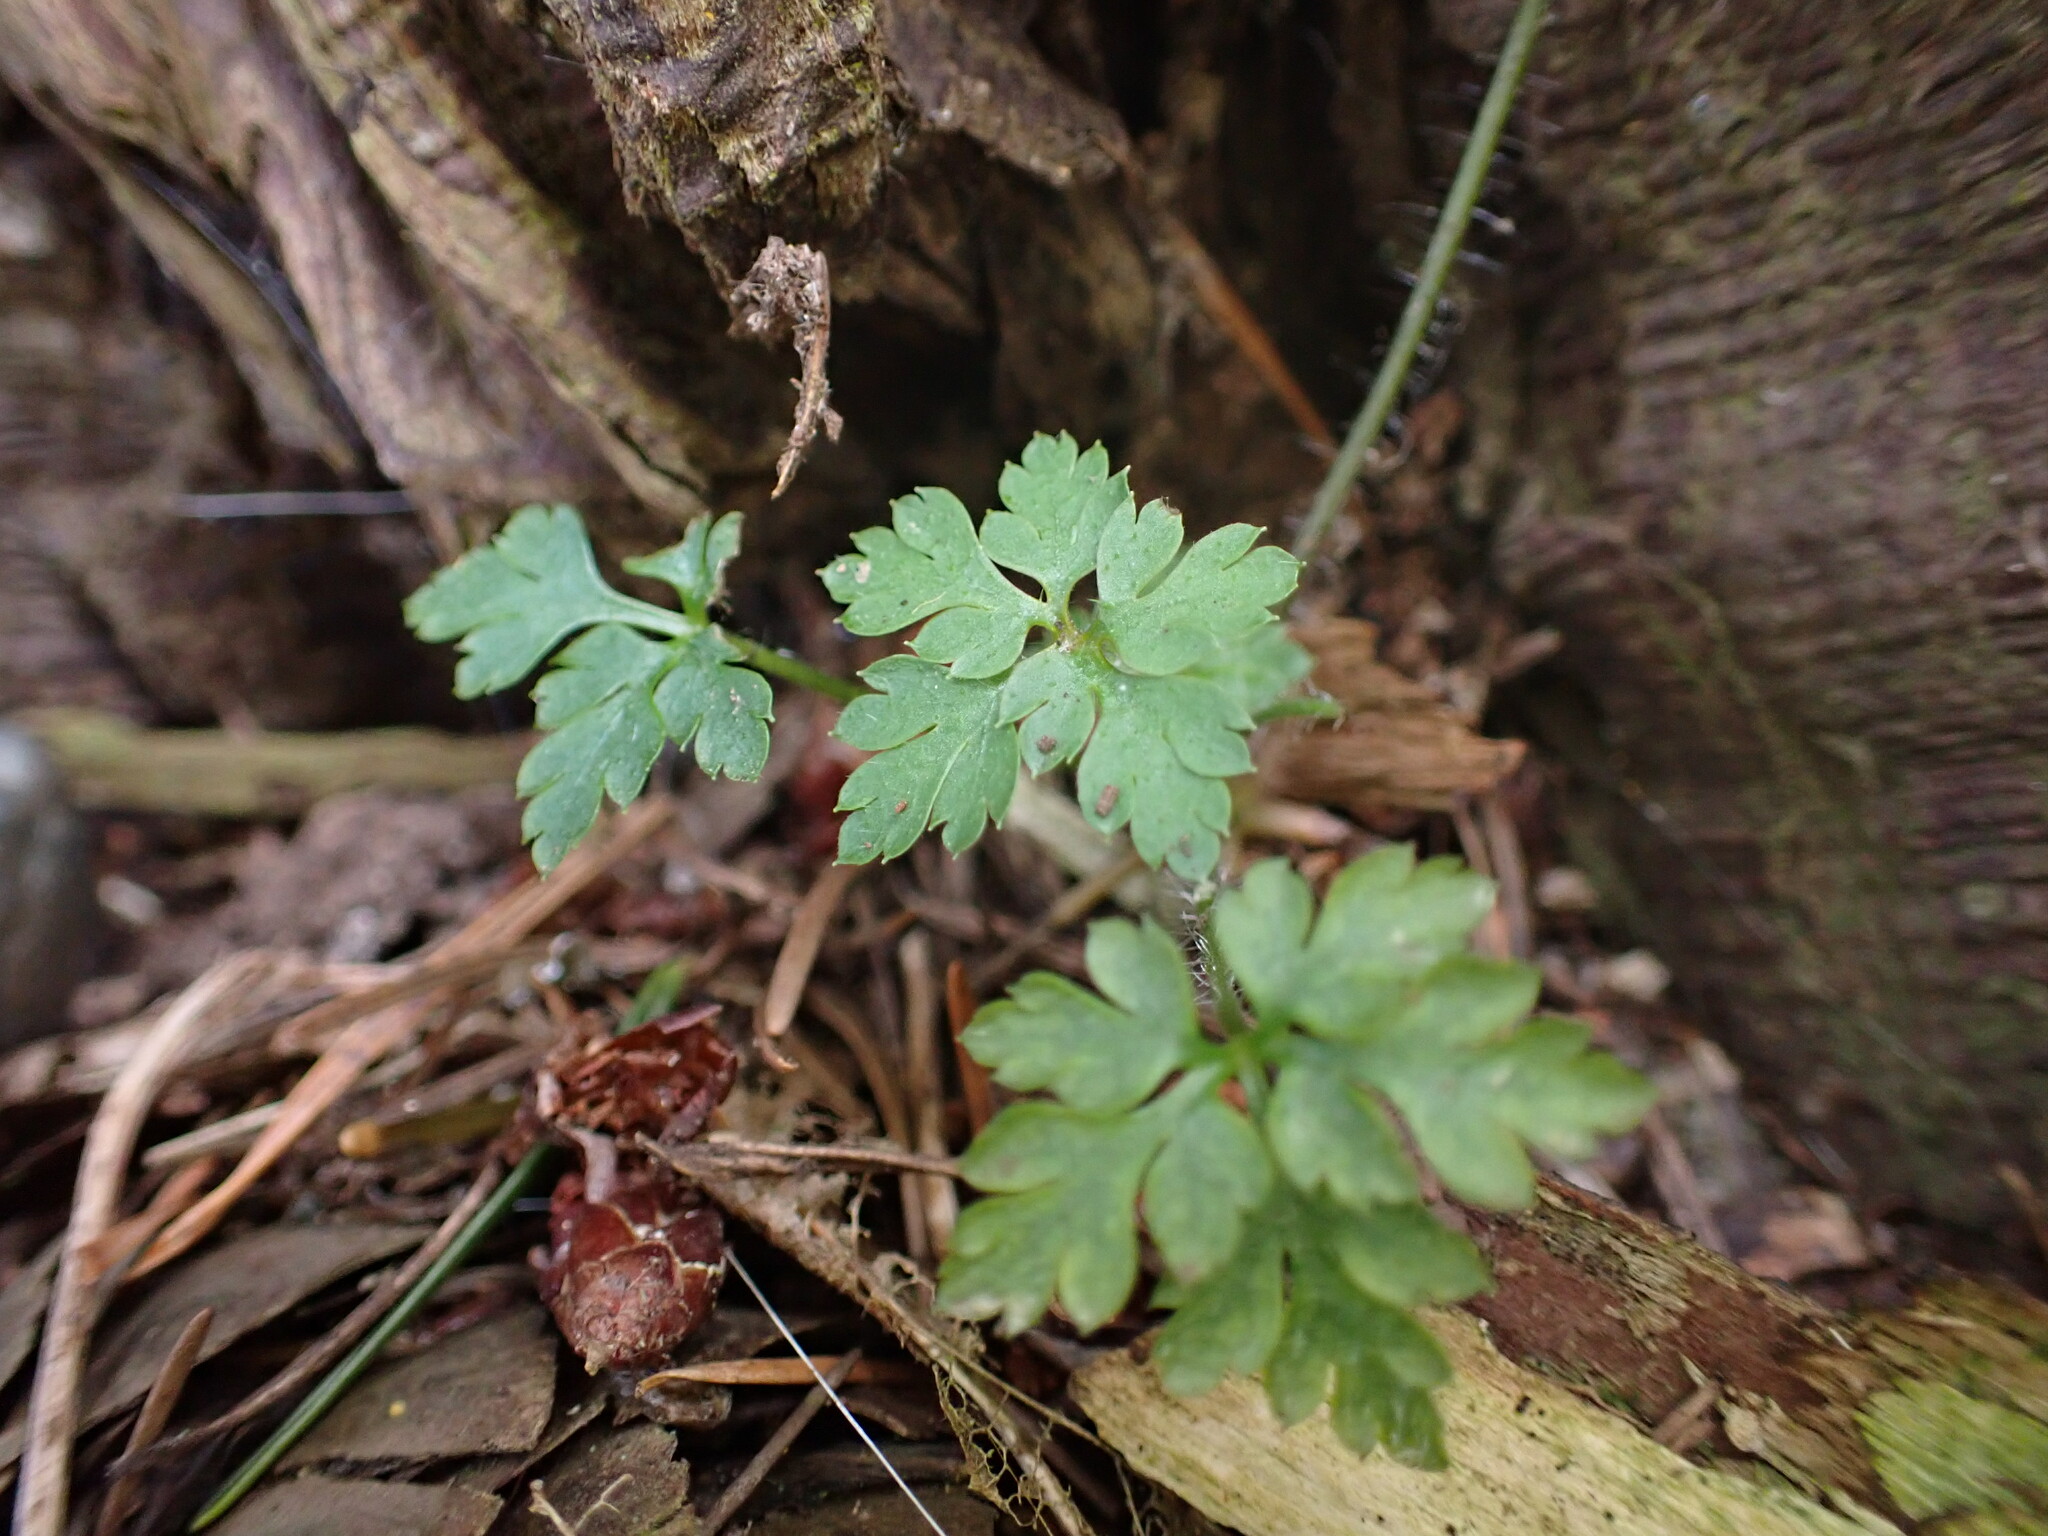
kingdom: Plantae
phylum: Tracheophyta
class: Magnoliopsida
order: Geraniales
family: Geraniaceae
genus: Geranium
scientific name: Geranium robertianum
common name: Herb-robert
